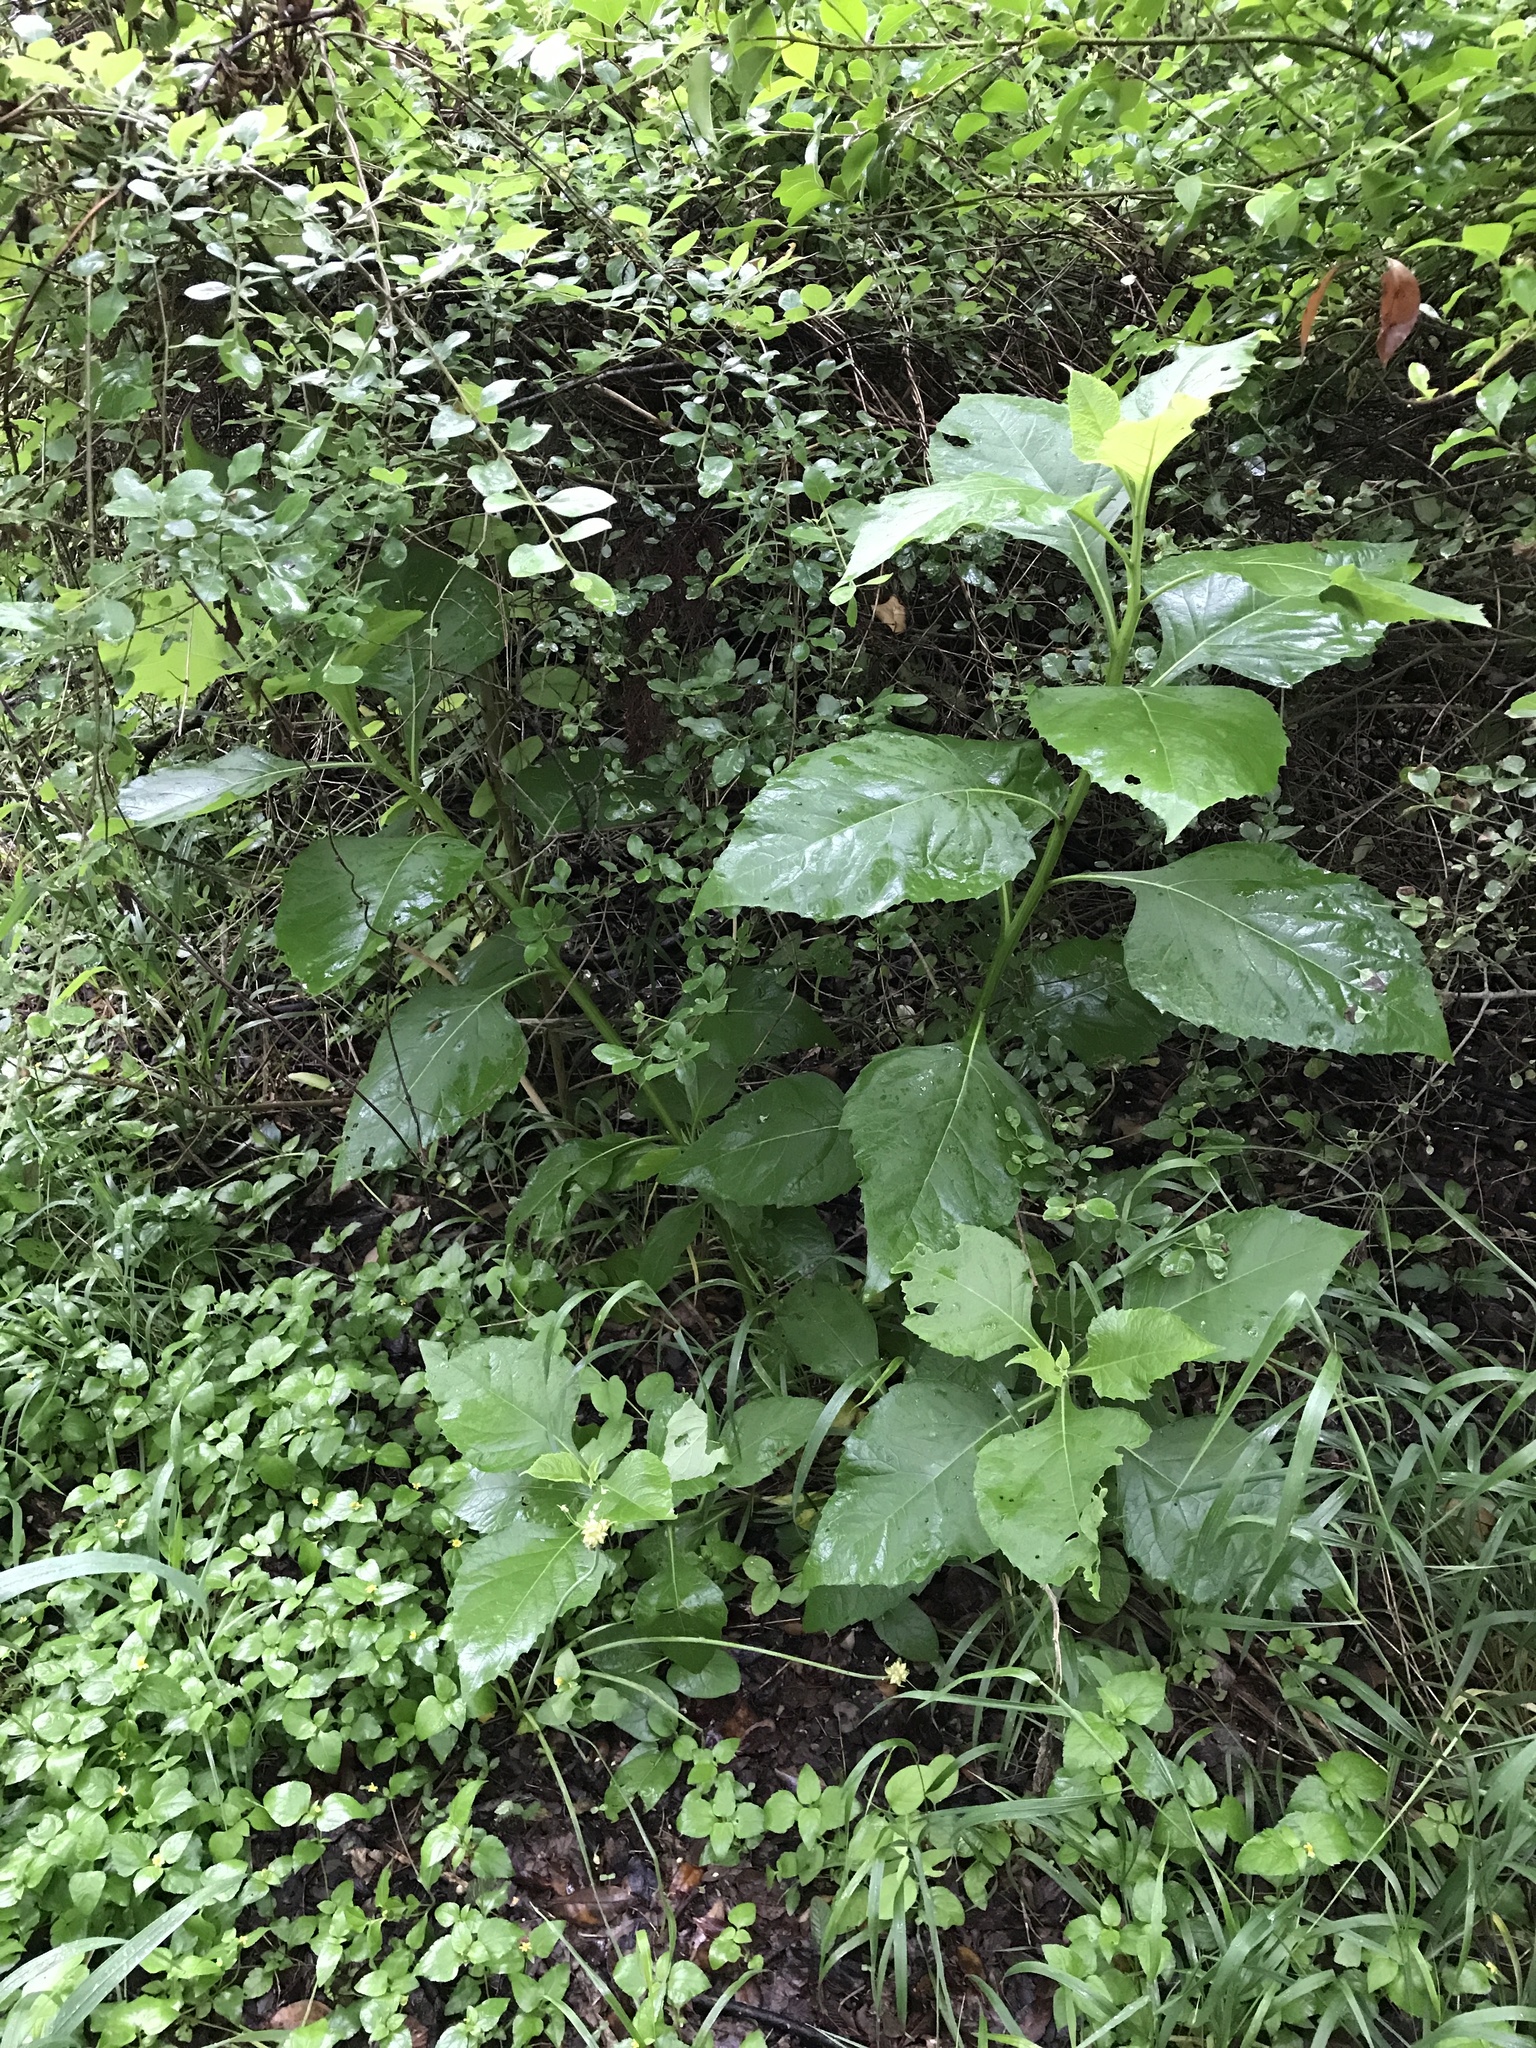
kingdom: Plantae
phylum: Tracheophyta
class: Magnoliopsida
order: Asterales
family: Asteraceae
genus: Verbesina
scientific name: Verbesina virginica
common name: Frostweed
